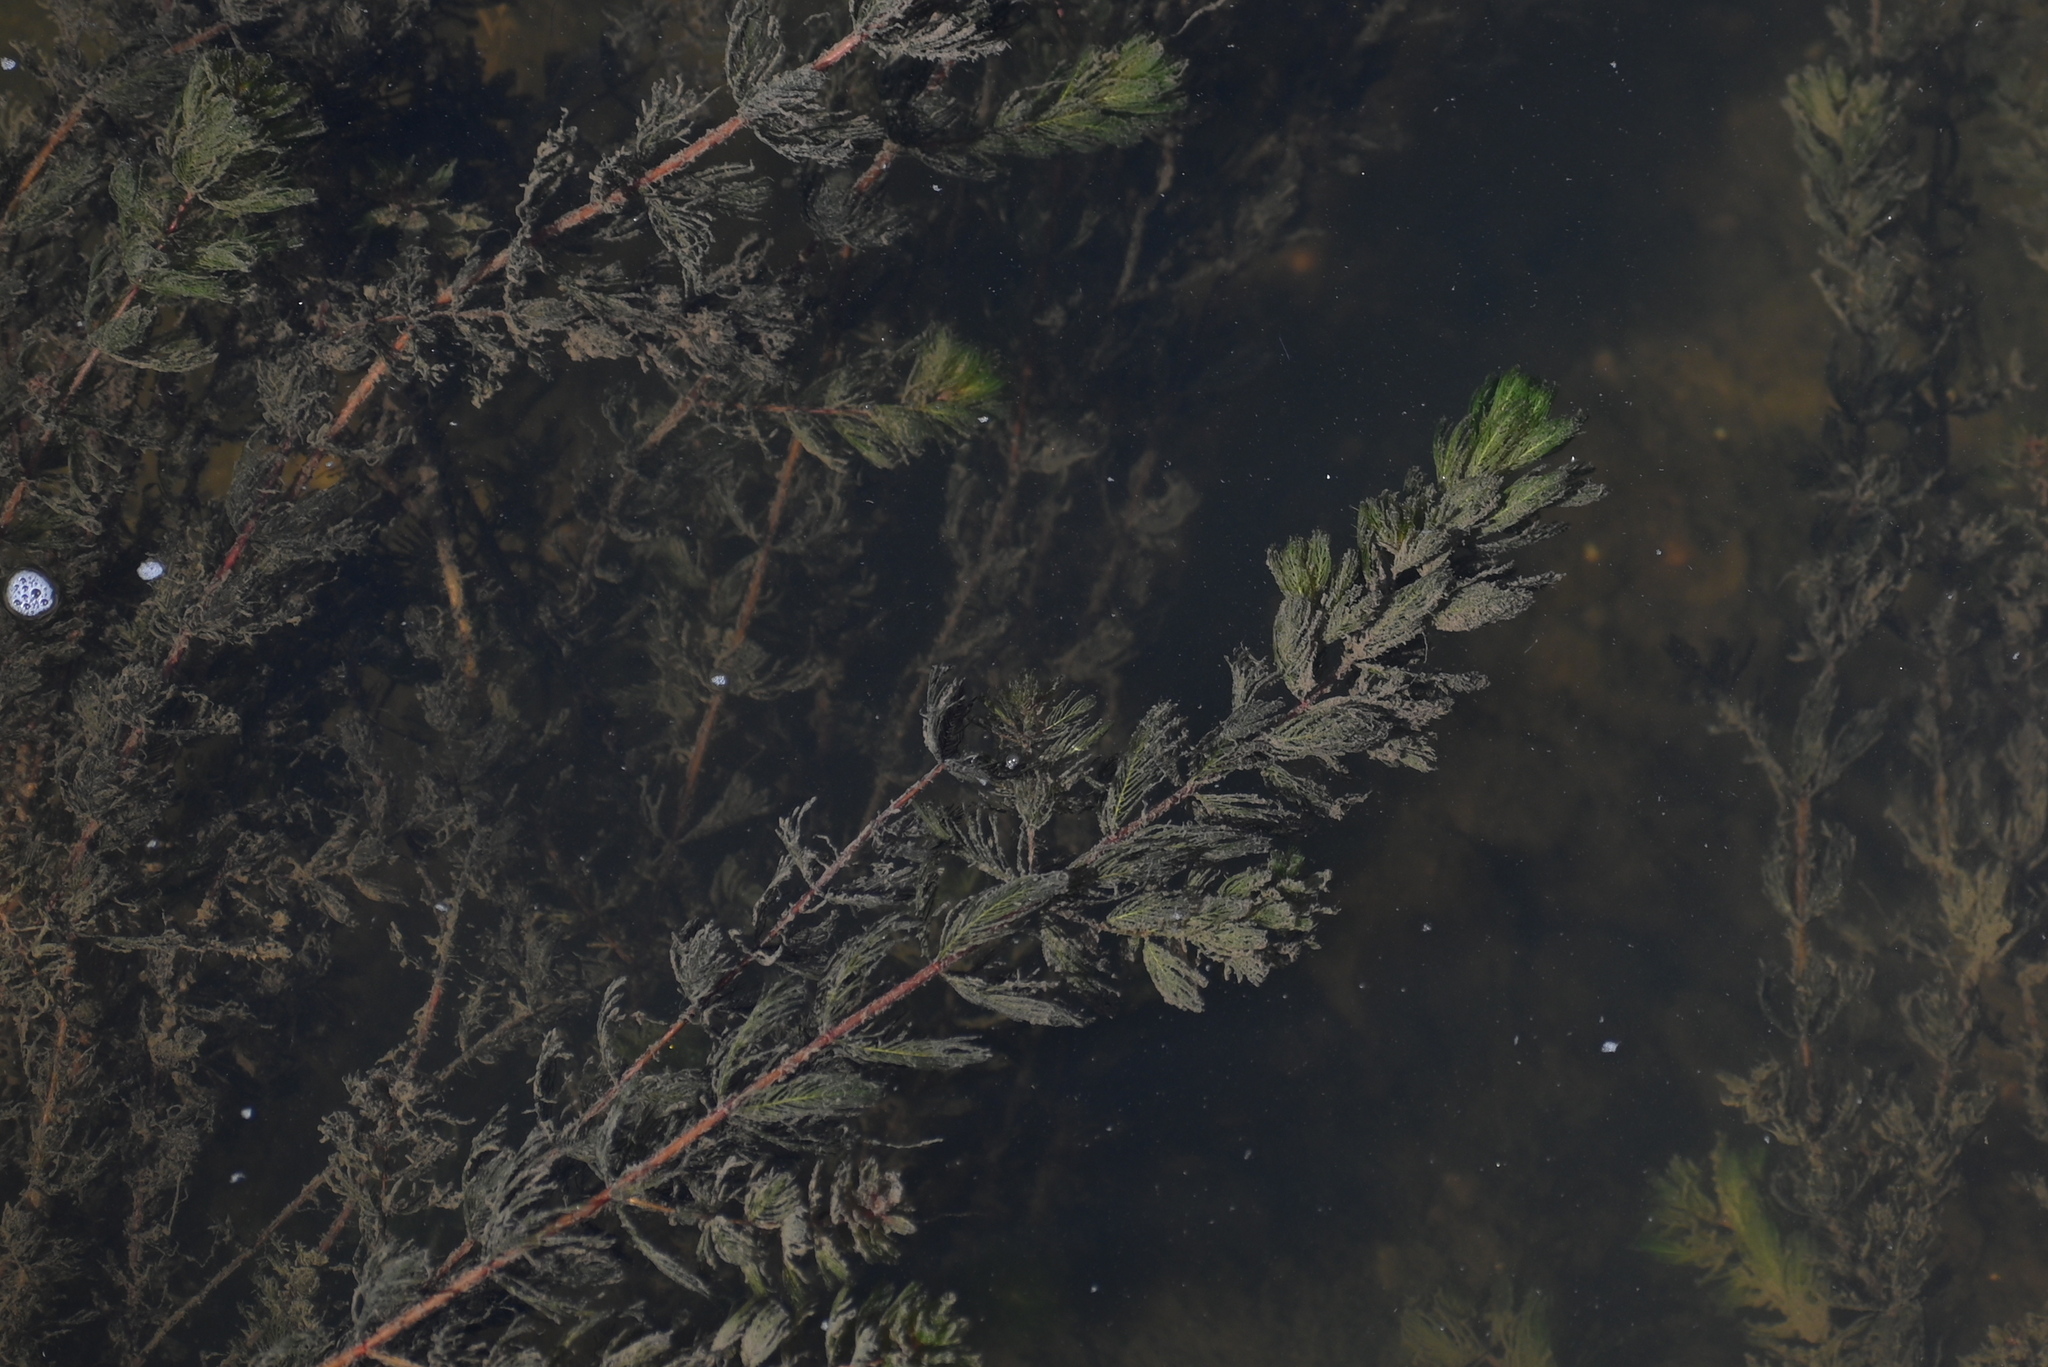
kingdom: Plantae
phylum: Tracheophyta
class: Magnoliopsida
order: Saxifragales
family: Haloragaceae
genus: Myriophyllum
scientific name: Myriophyllum spicatum
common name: Spiked water-milfoil
